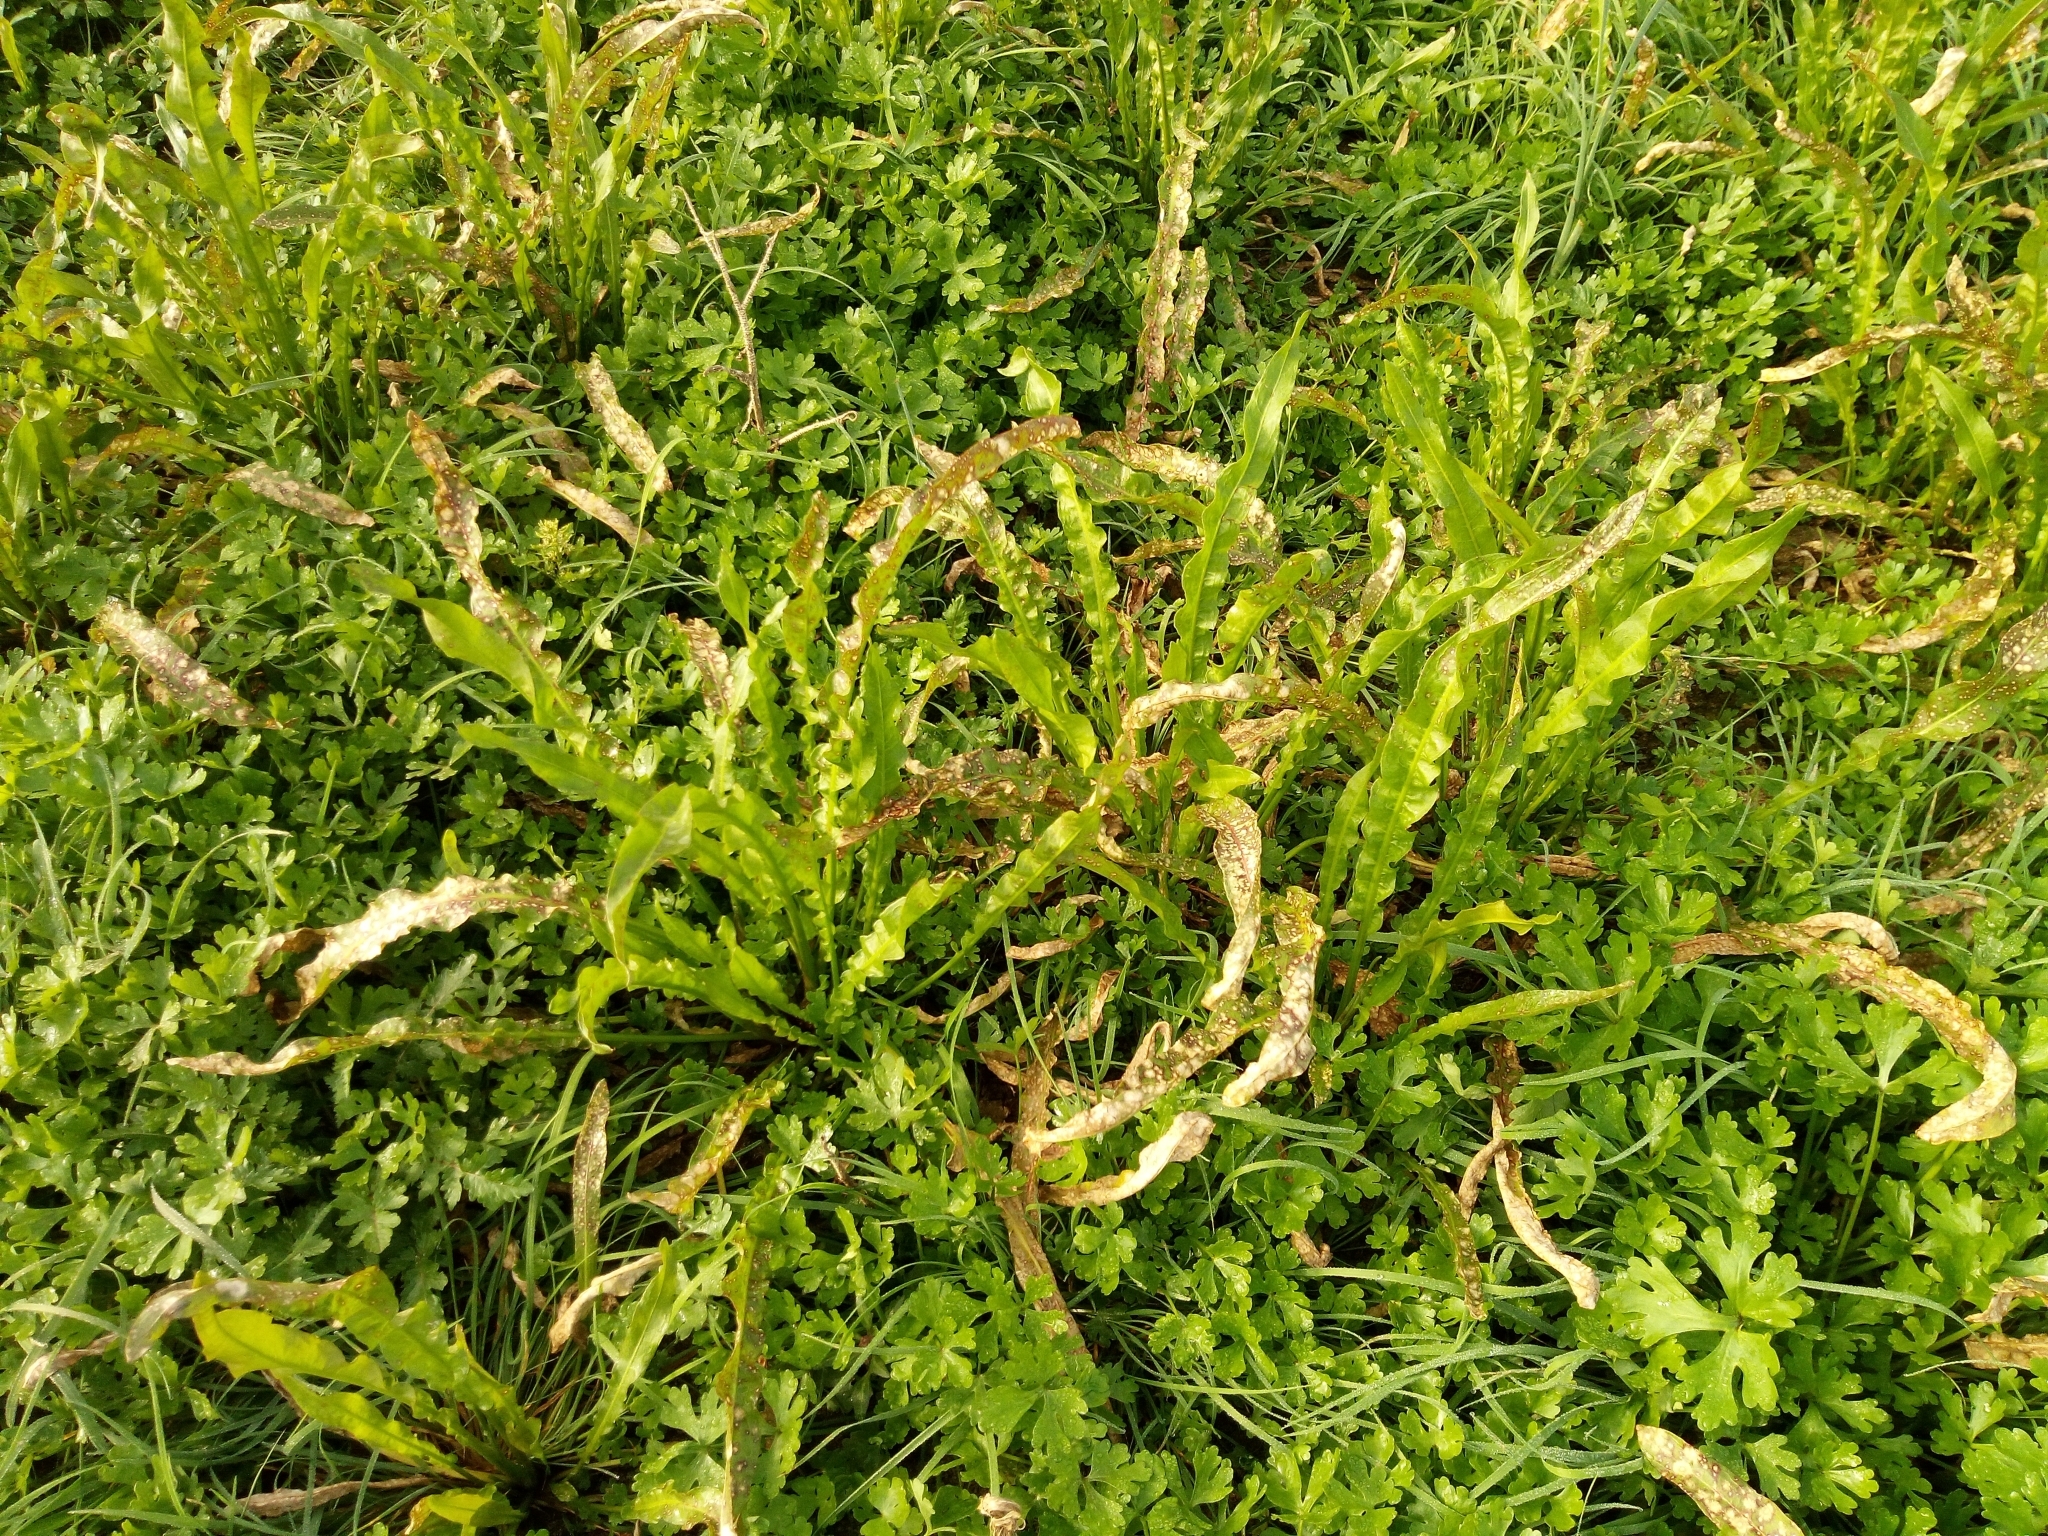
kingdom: Plantae
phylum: Tracheophyta
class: Magnoliopsida
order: Caryophyllales
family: Polygonaceae
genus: Rumex
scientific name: Rumex maritimus
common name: Golden dock
